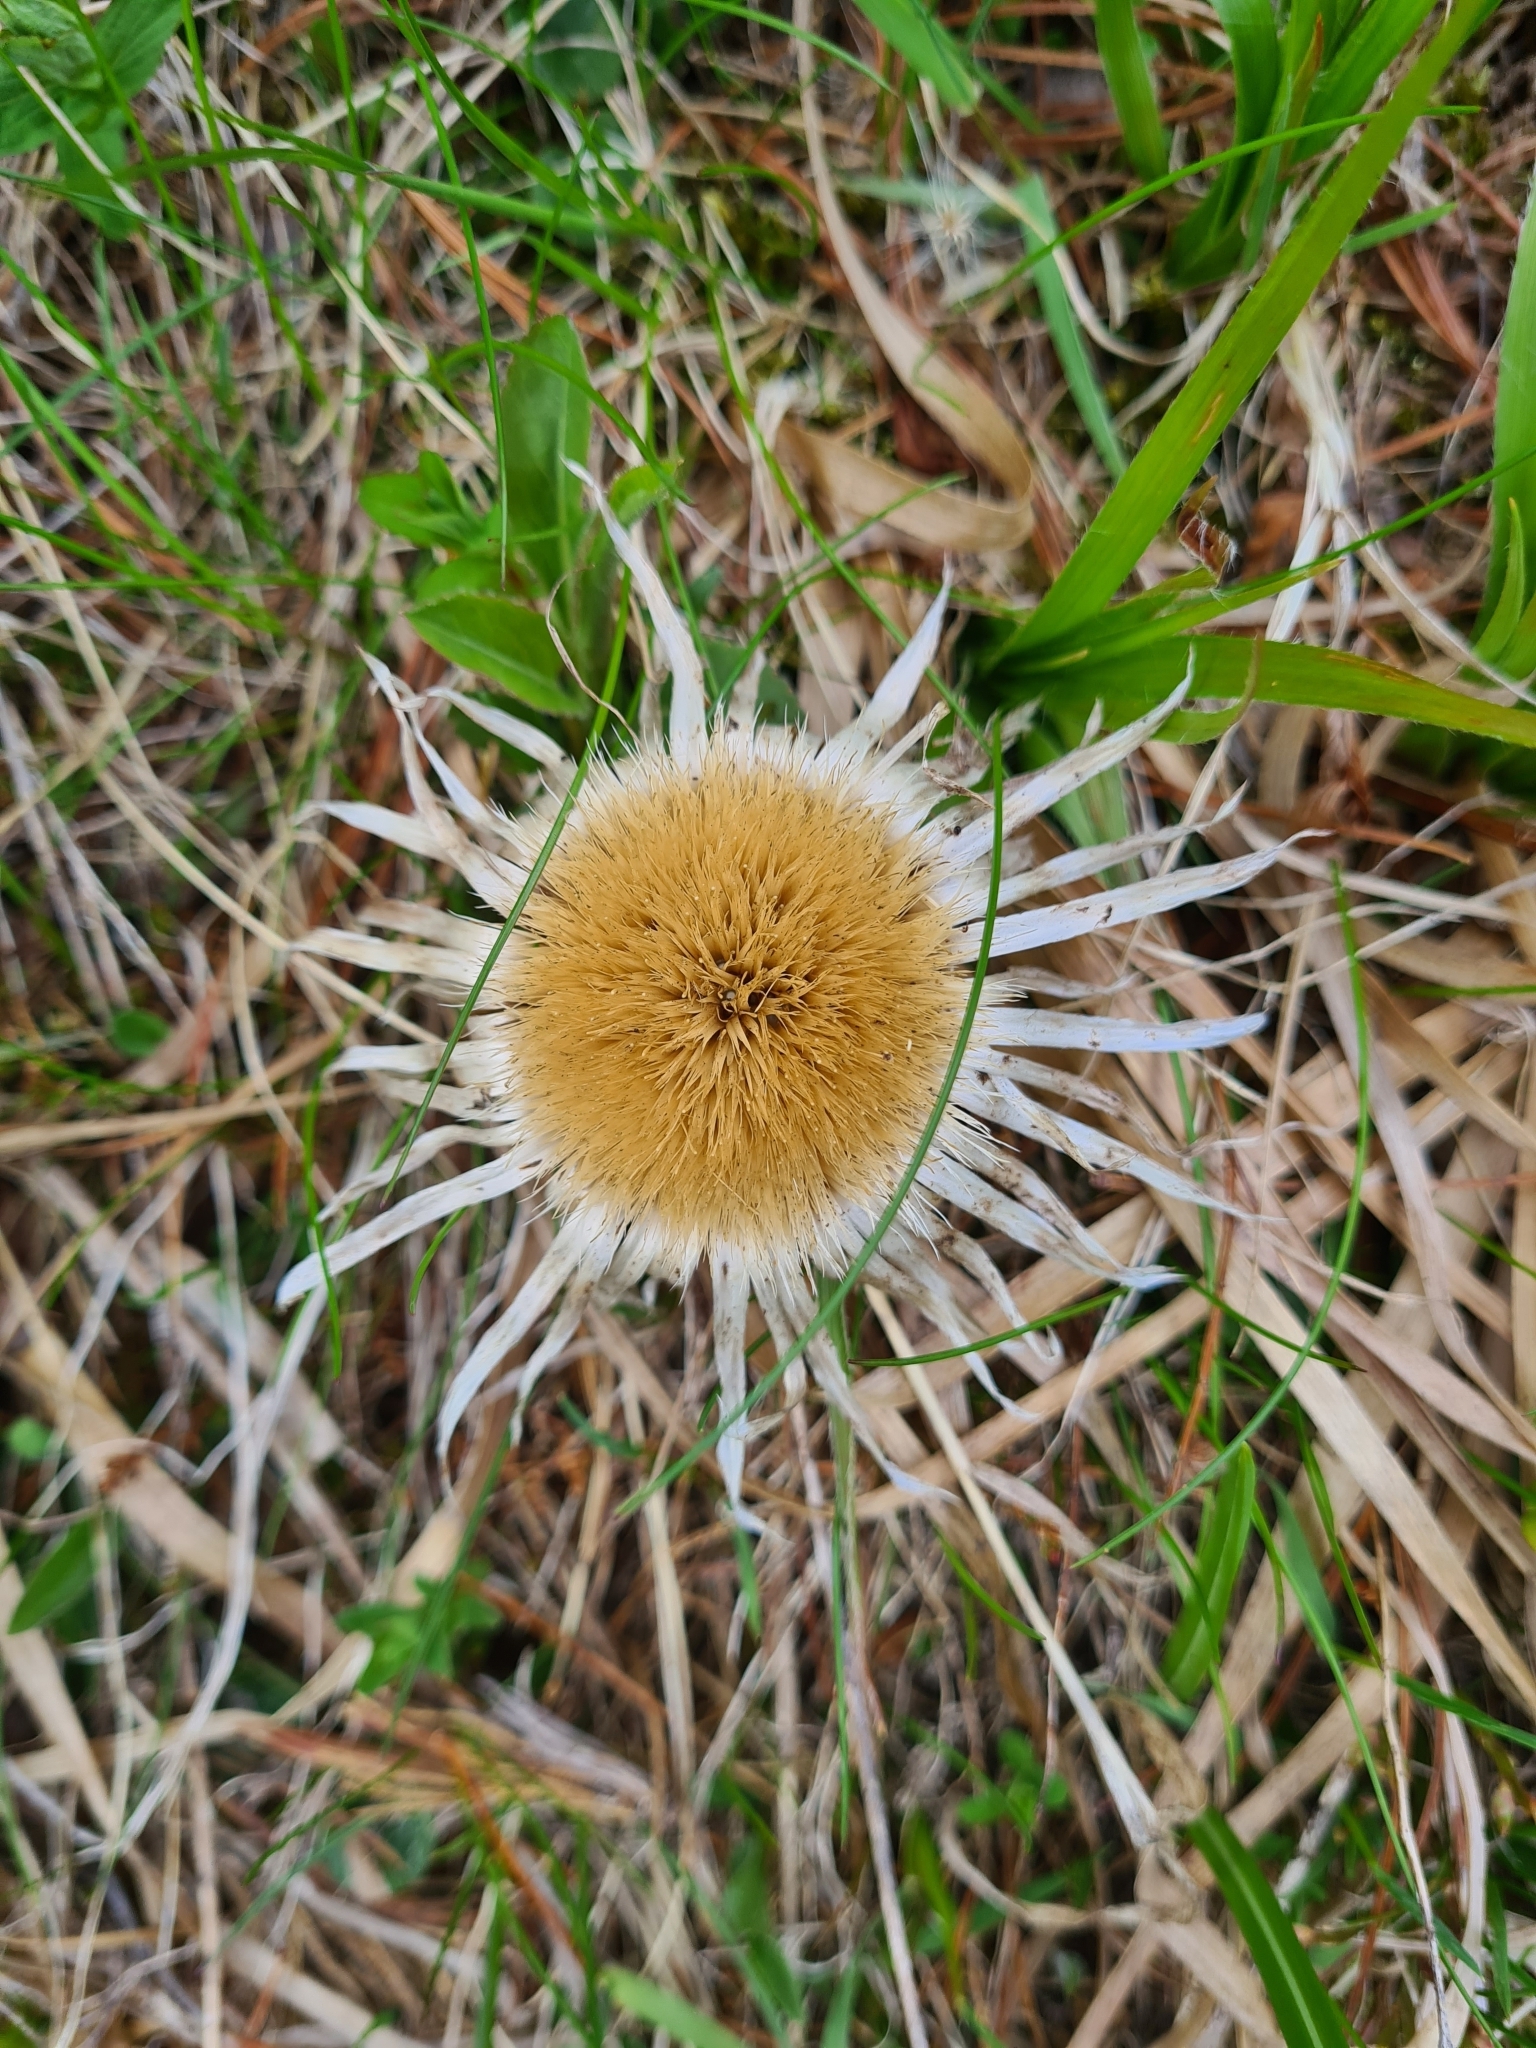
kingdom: Plantae
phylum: Tracheophyta
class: Magnoliopsida
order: Asterales
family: Asteraceae
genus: Carlina
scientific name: Carlina acaulis
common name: Stemless carline thistle
